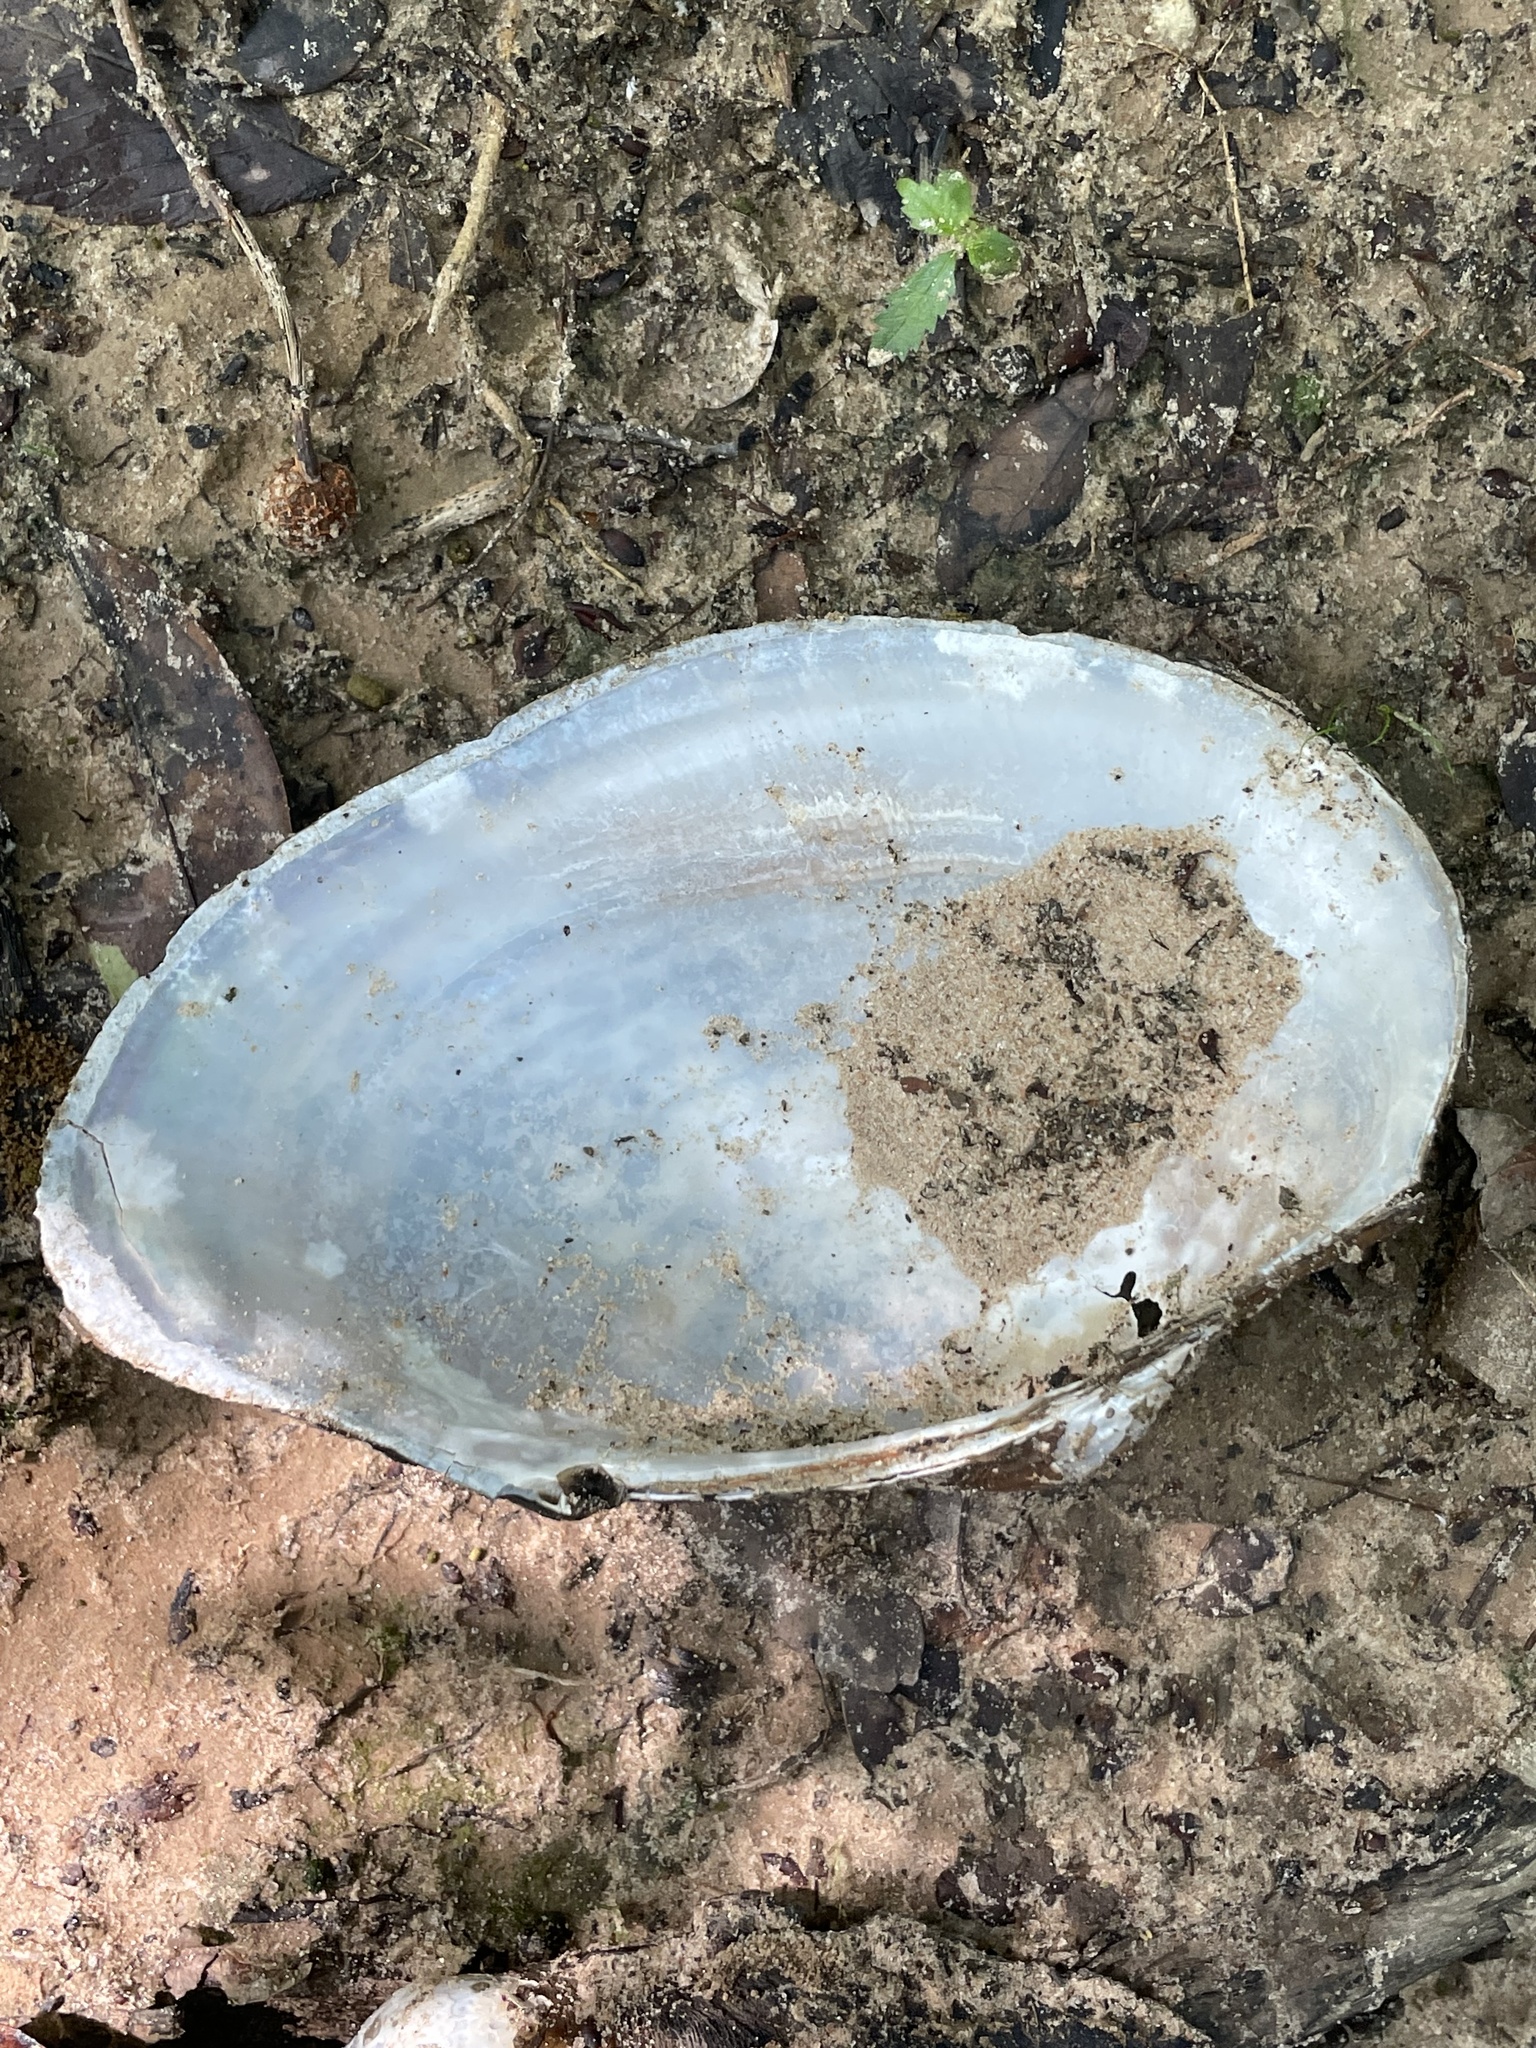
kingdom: Animalia
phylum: Mollusca
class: Bivalvia
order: Unionida
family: Unionidae
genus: Pyganodon
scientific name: Pyganodon grandis
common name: Giant floater
